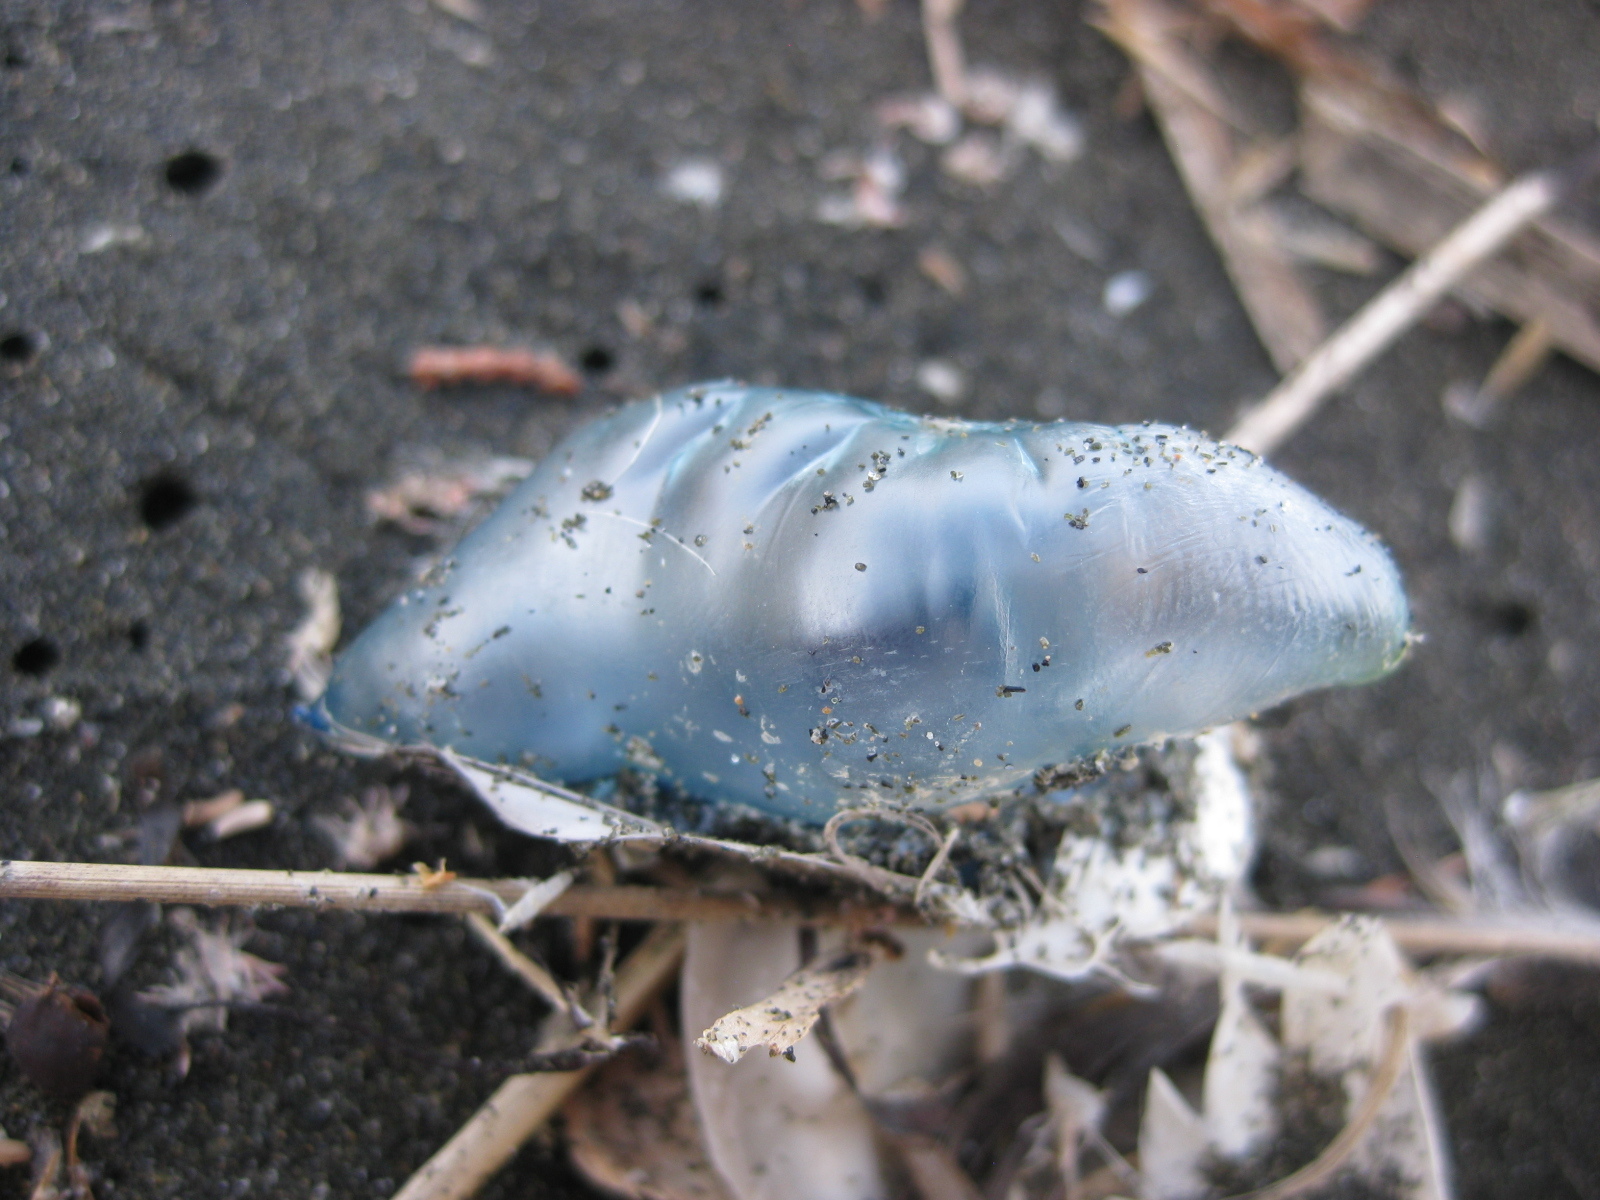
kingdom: Animalia
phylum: Cnidaria
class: Hydrozoa
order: Siphonophorae
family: Physaliidae
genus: Physalia
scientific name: Physalia physalis
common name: Portuguese man-of-war
